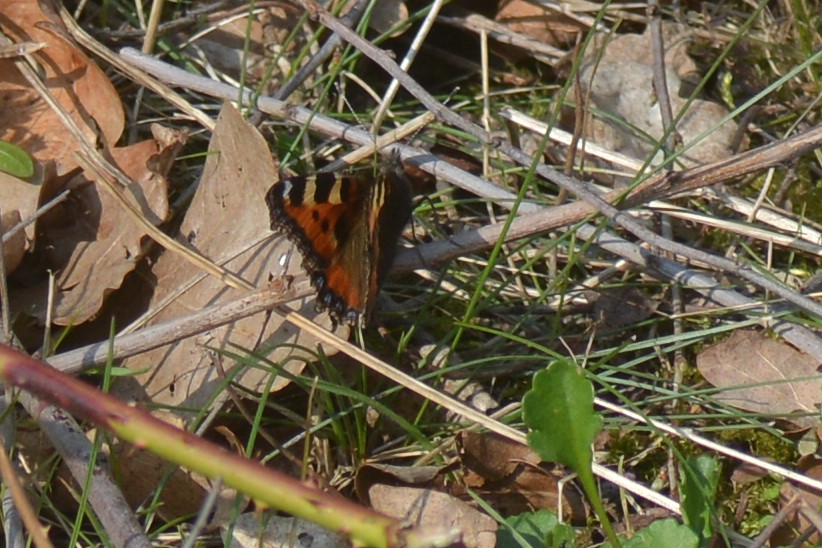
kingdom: Animalia
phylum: Arthropoda
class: Insecta
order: Lepidoptera
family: Nymphalidae
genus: Aglais
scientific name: Aglais urticae
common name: Small tortoiseshell
